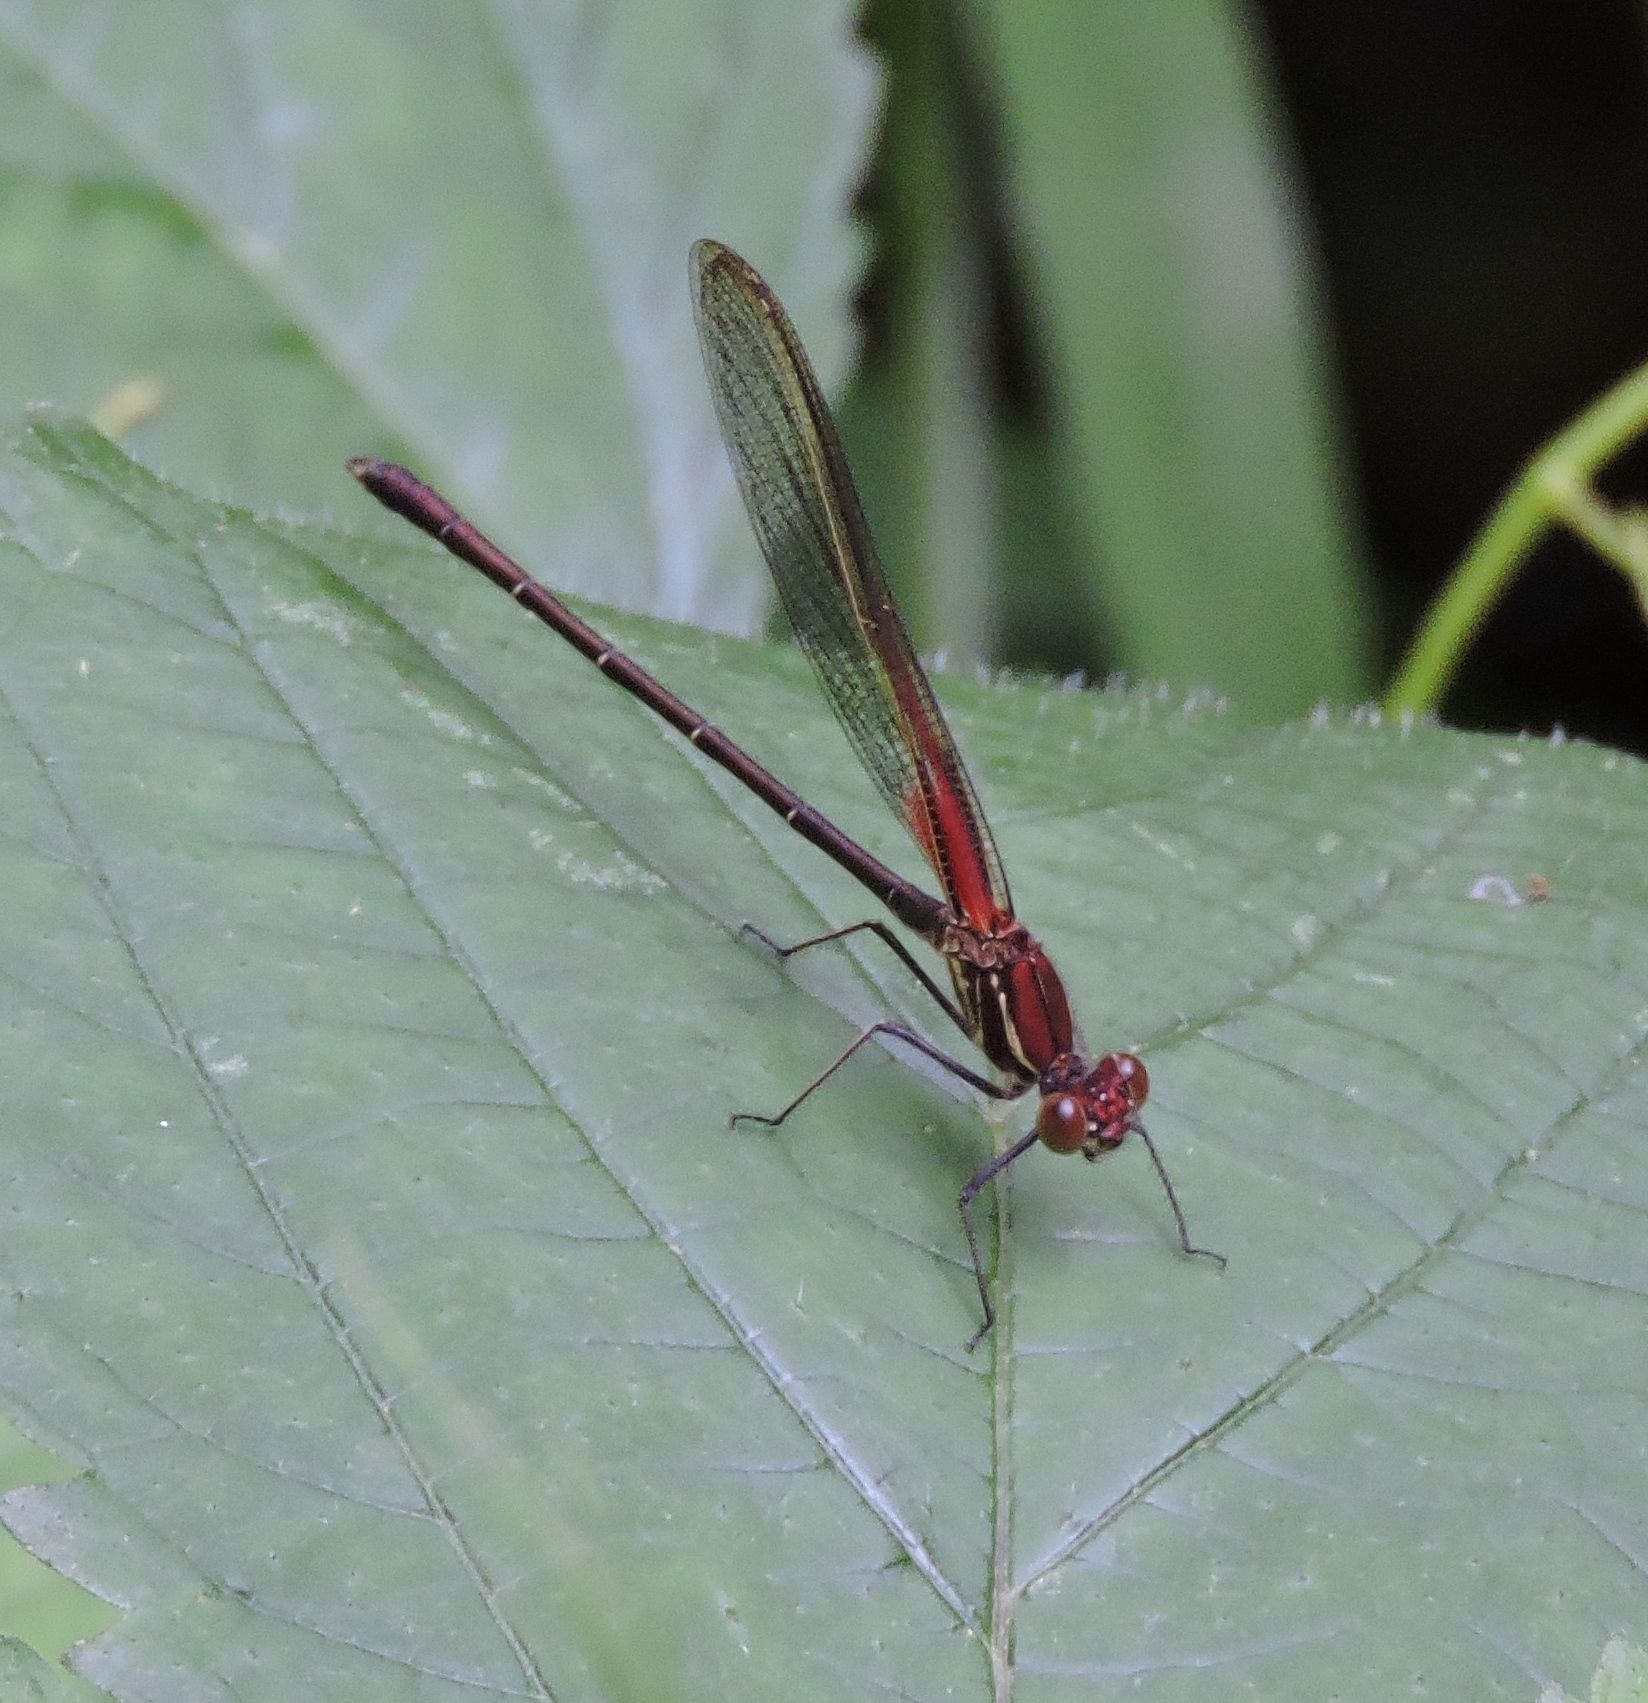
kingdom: Animalia
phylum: Arthropoda
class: Insecta
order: Odonata
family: Calopterygidae
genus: Hetaerina
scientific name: Hetaerina americana
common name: American rubyspot
